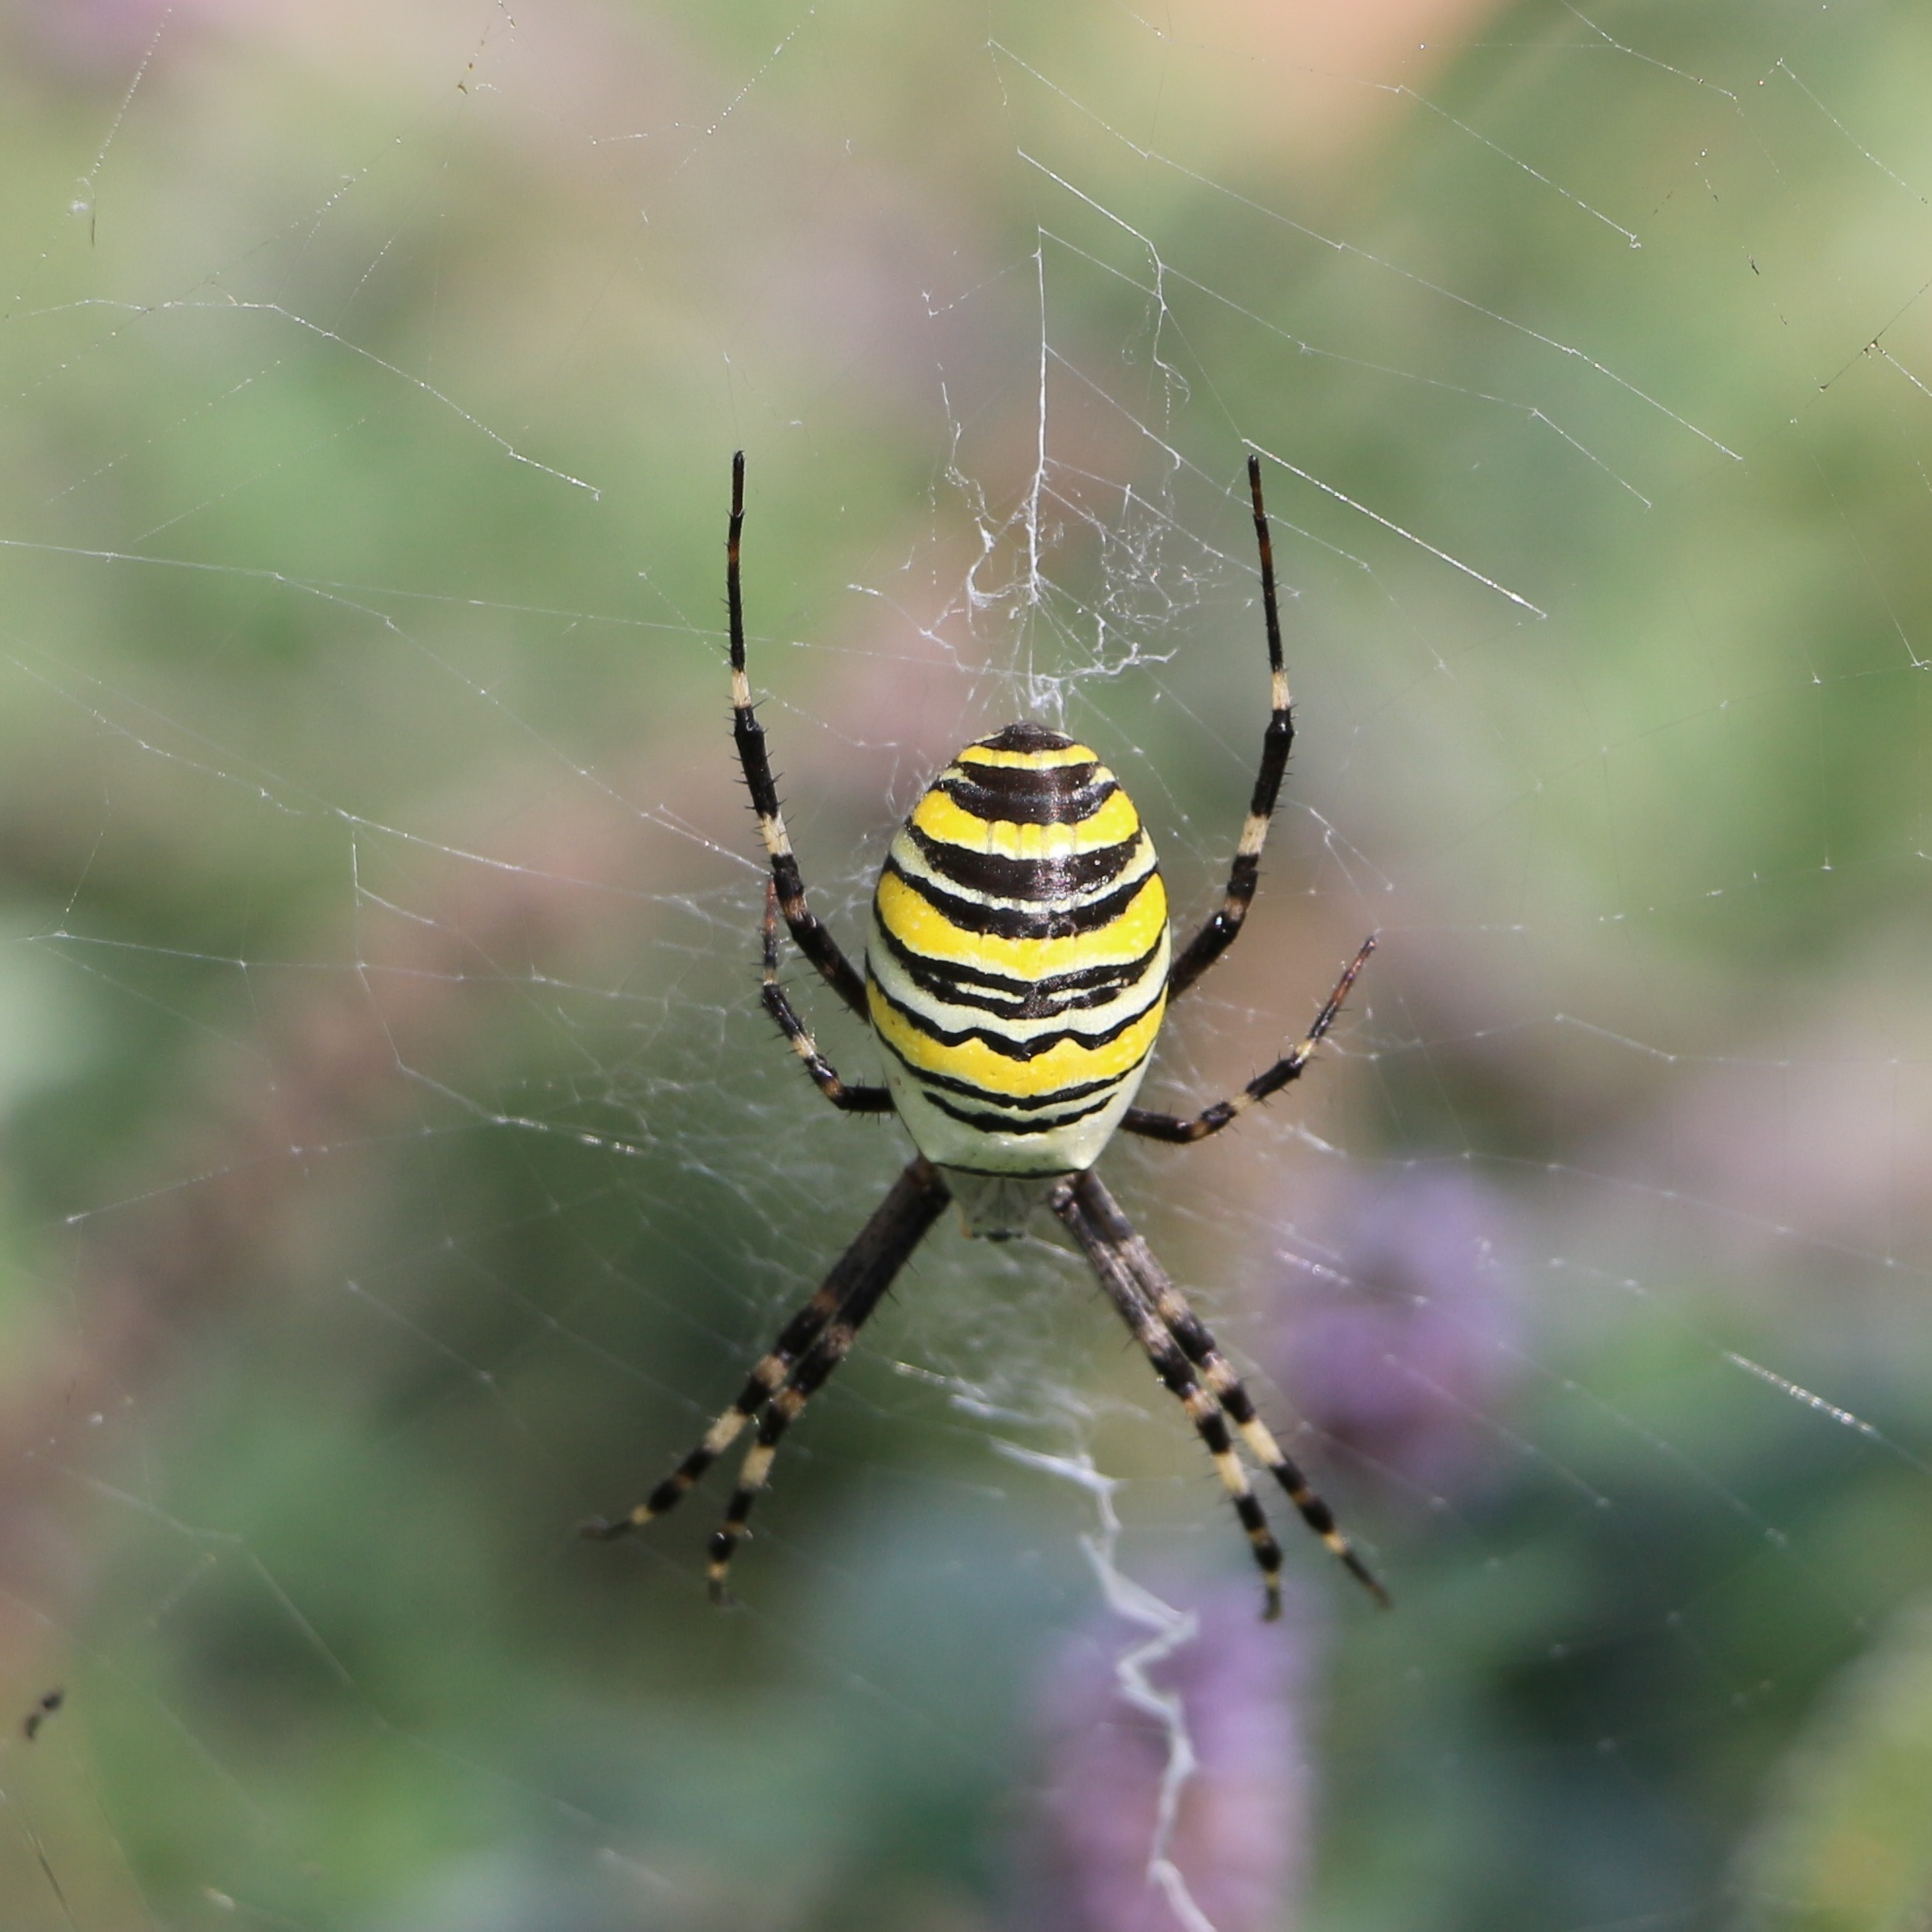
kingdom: Animalia
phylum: Arthropoda
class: Arachnida
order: Araneae
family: Araneidae
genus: Argiope
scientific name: Argiope bruennichi
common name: Wasp spider
